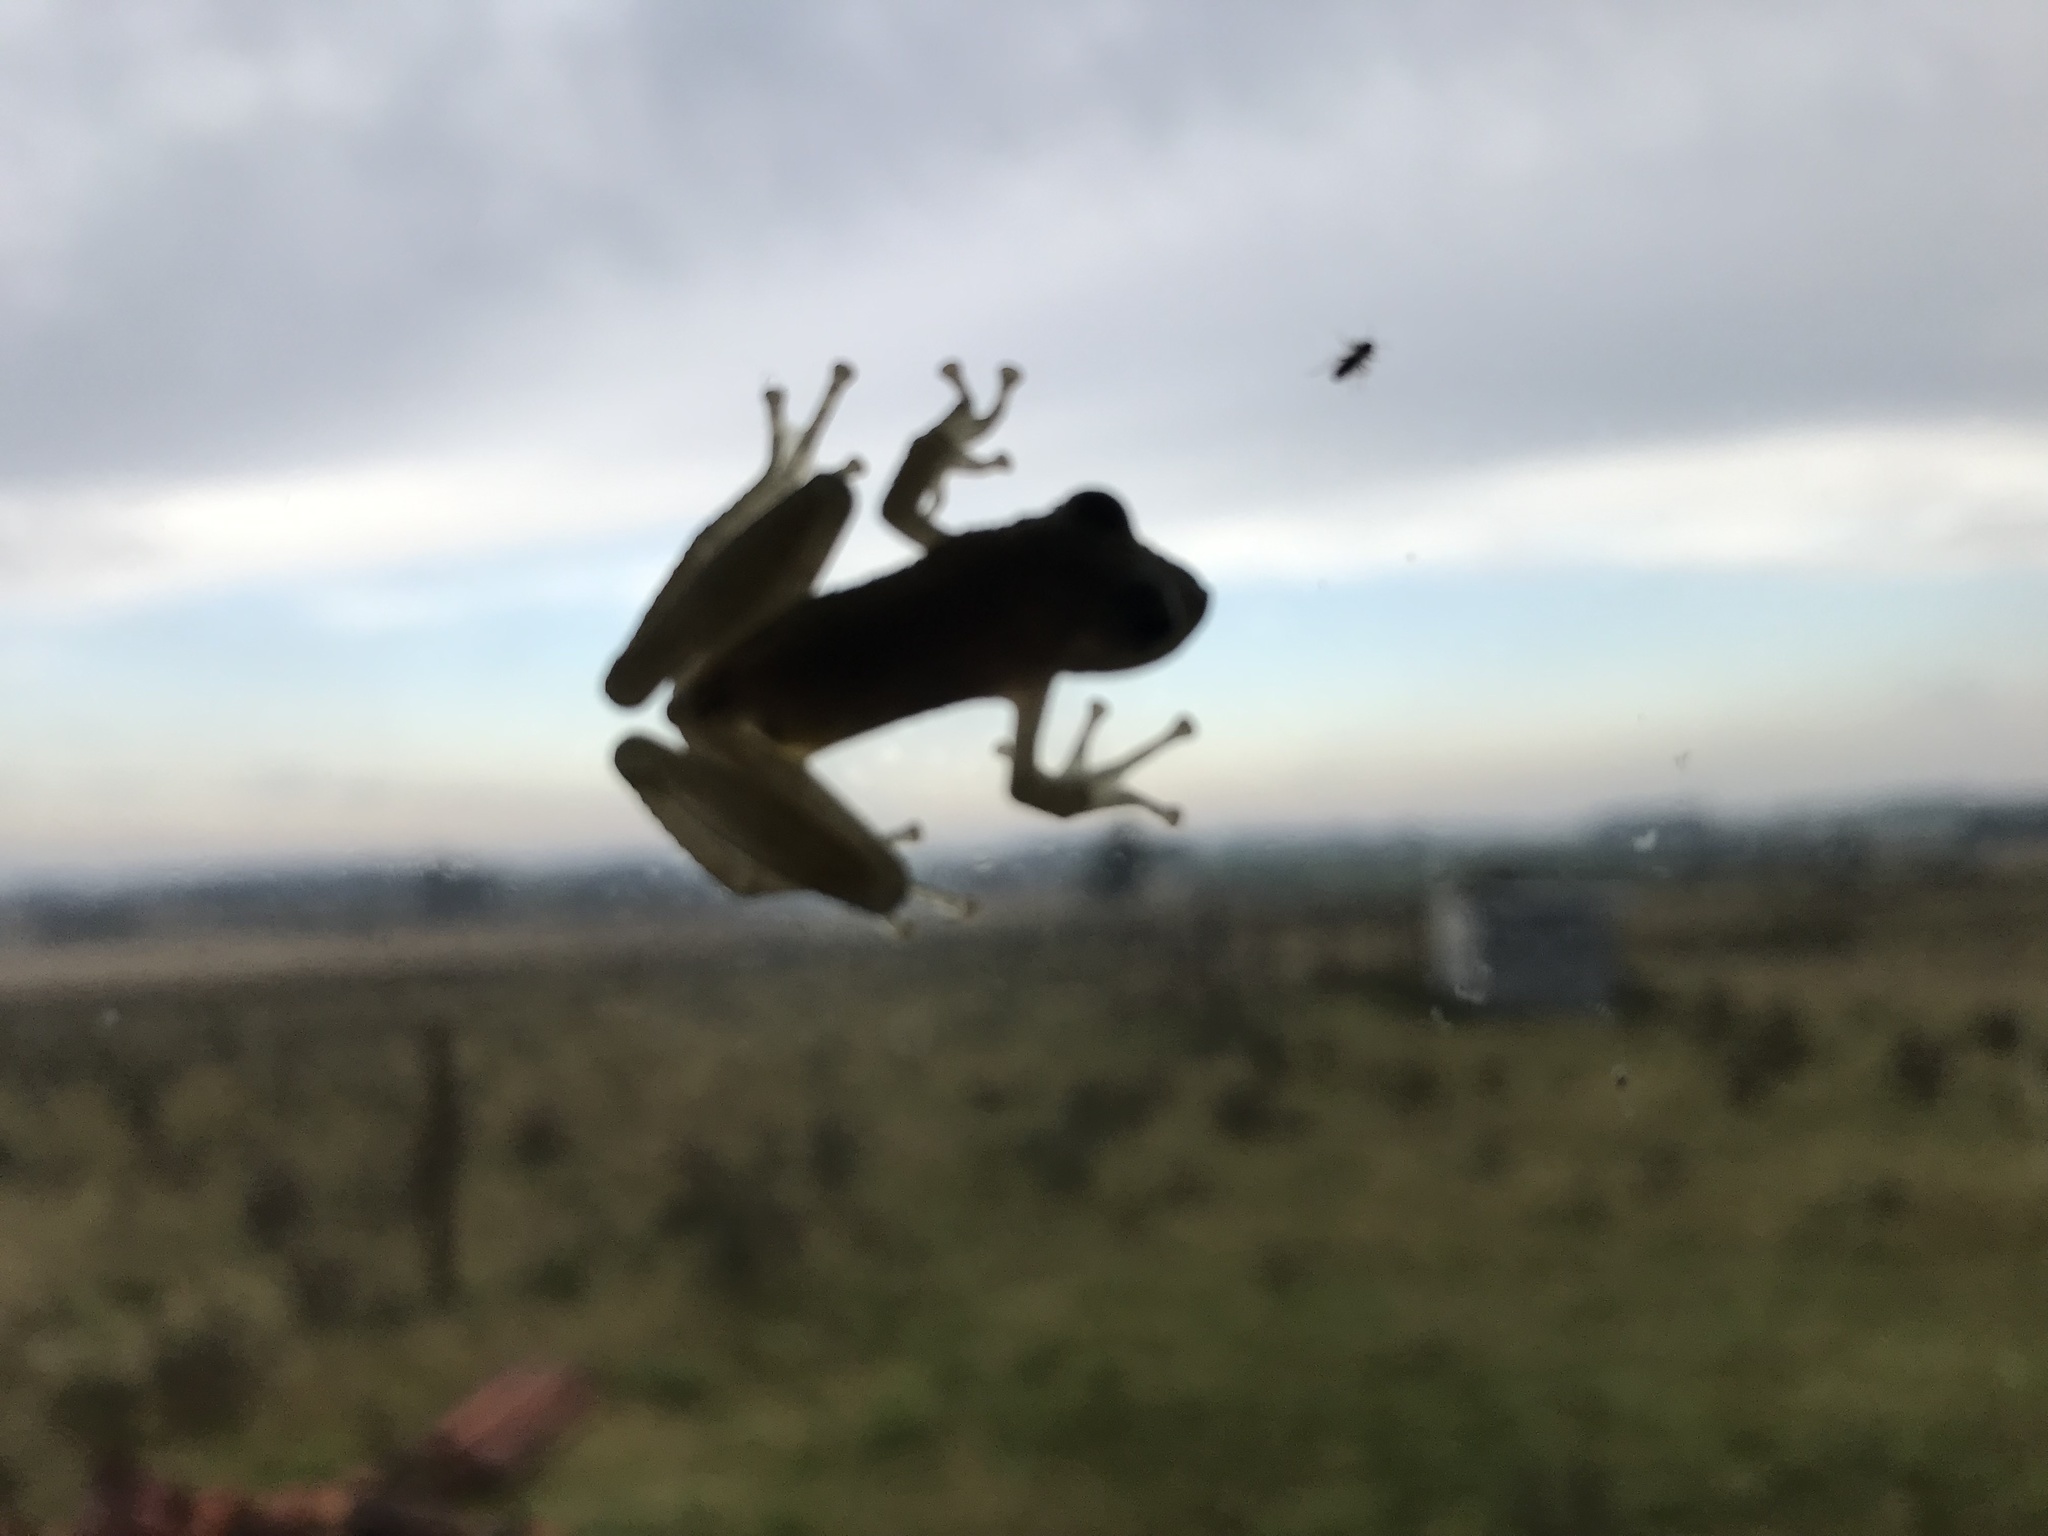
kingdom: Animalia
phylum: Chordata
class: Amphibia
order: Anura
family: Hylidae
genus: Scinax
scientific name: Scinax granulatus
